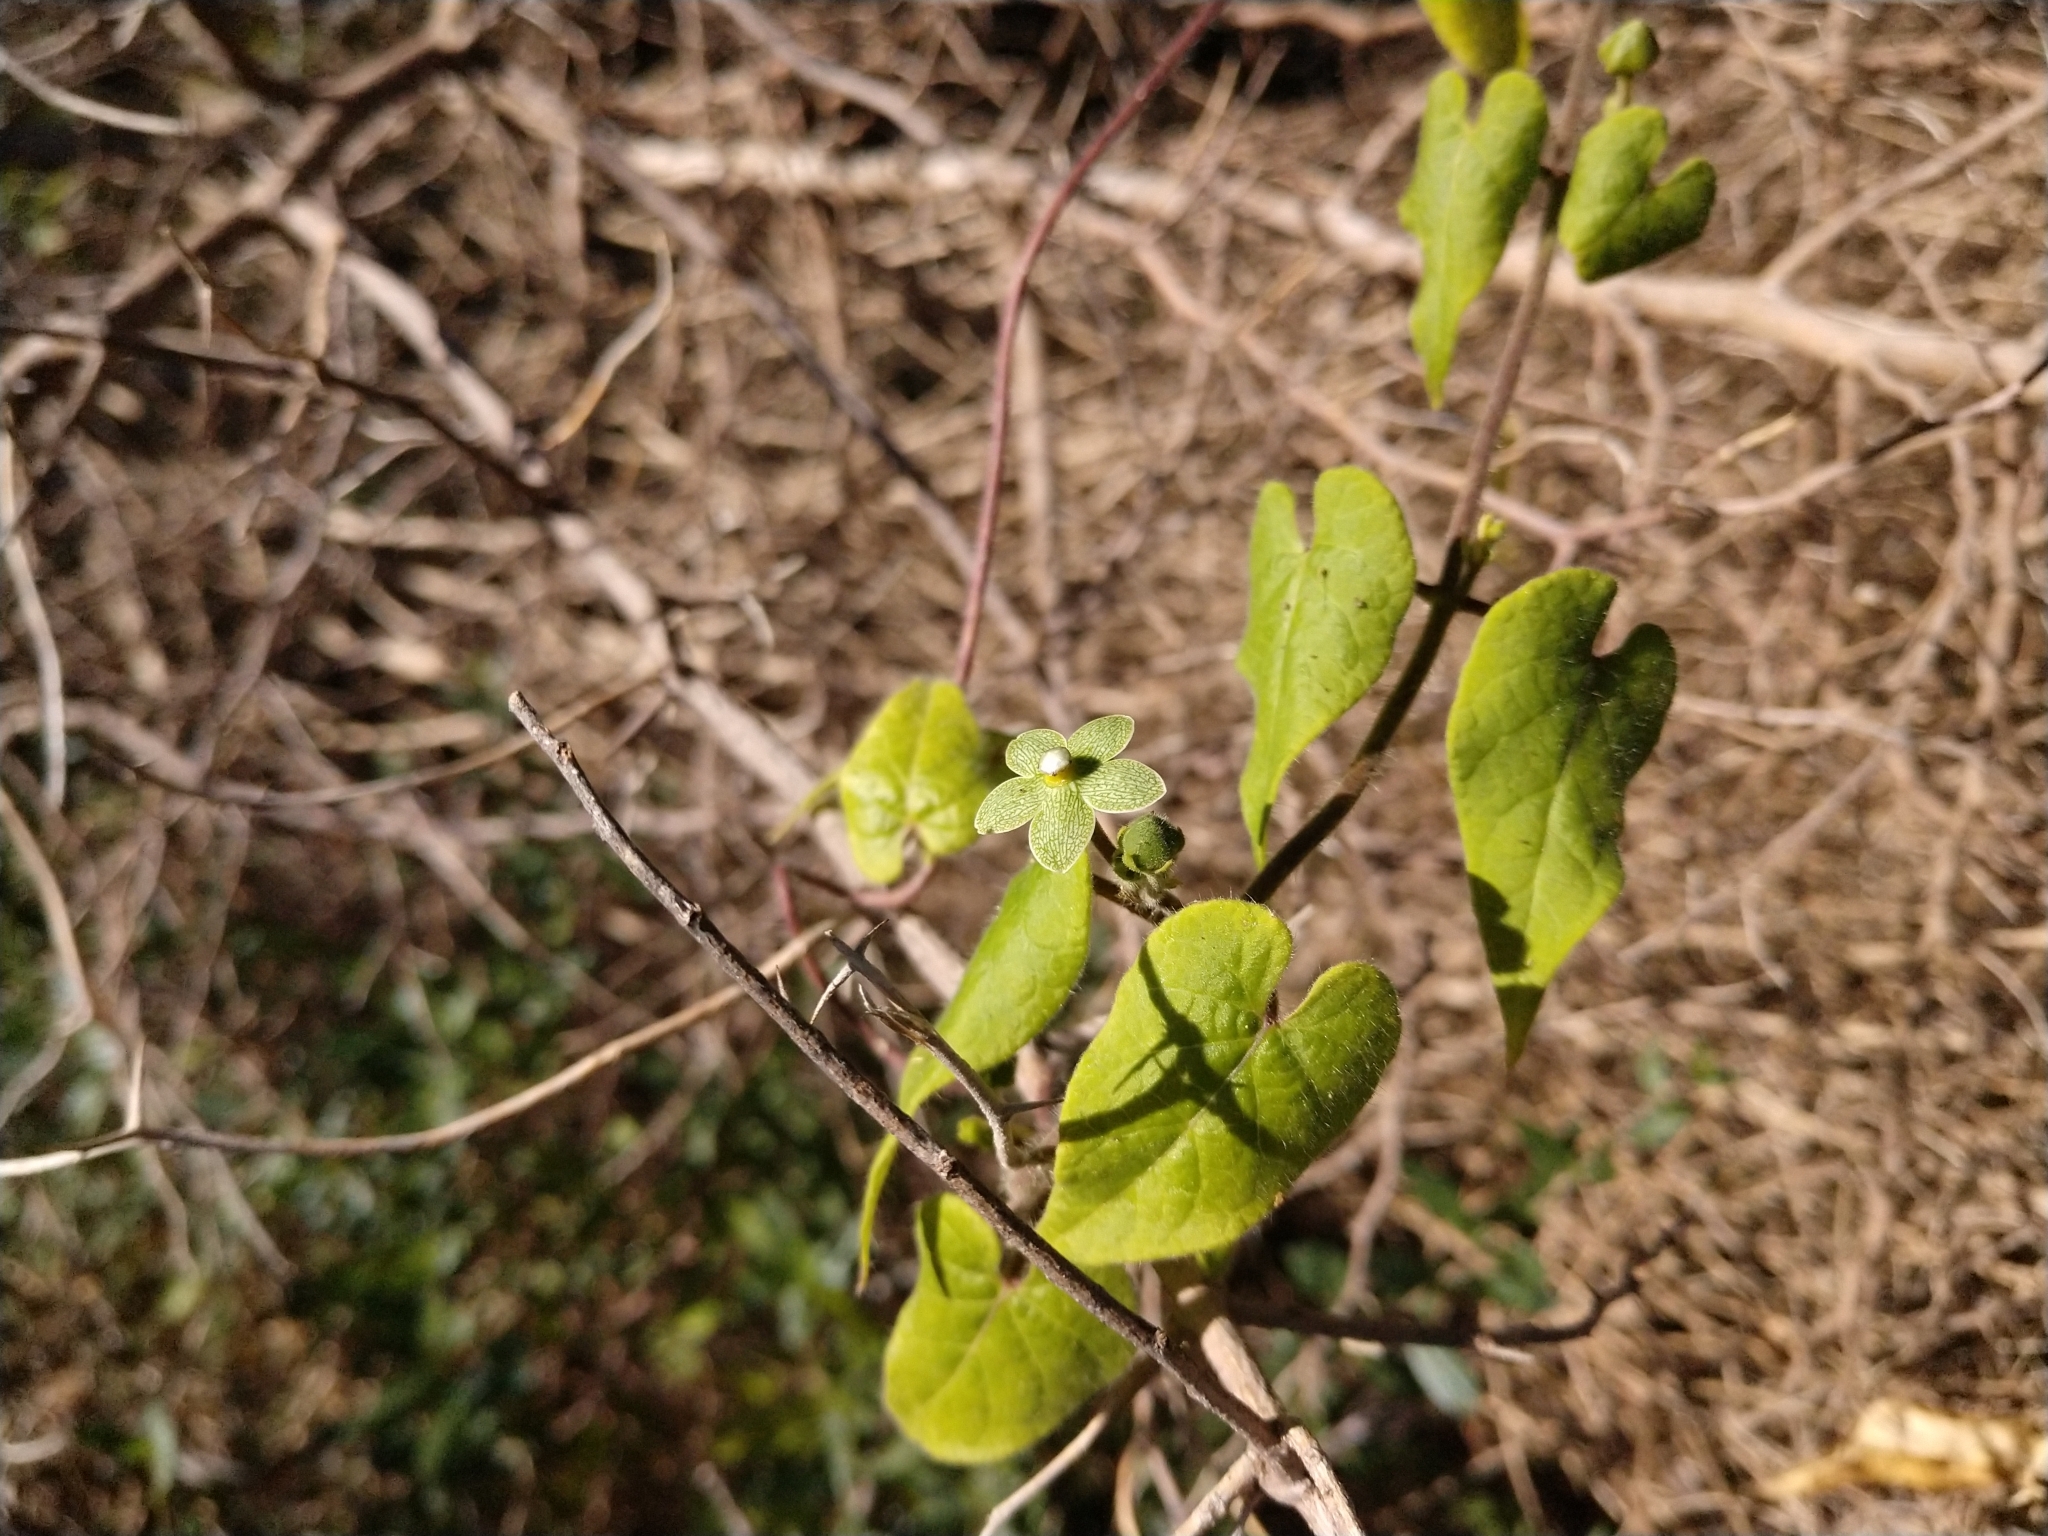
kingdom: Plantae
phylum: Tracheophyta
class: Magnoliopsida
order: Gentianales
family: Apocynaceae
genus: Dictyanthus
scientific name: Dictyanthus reticulatus
